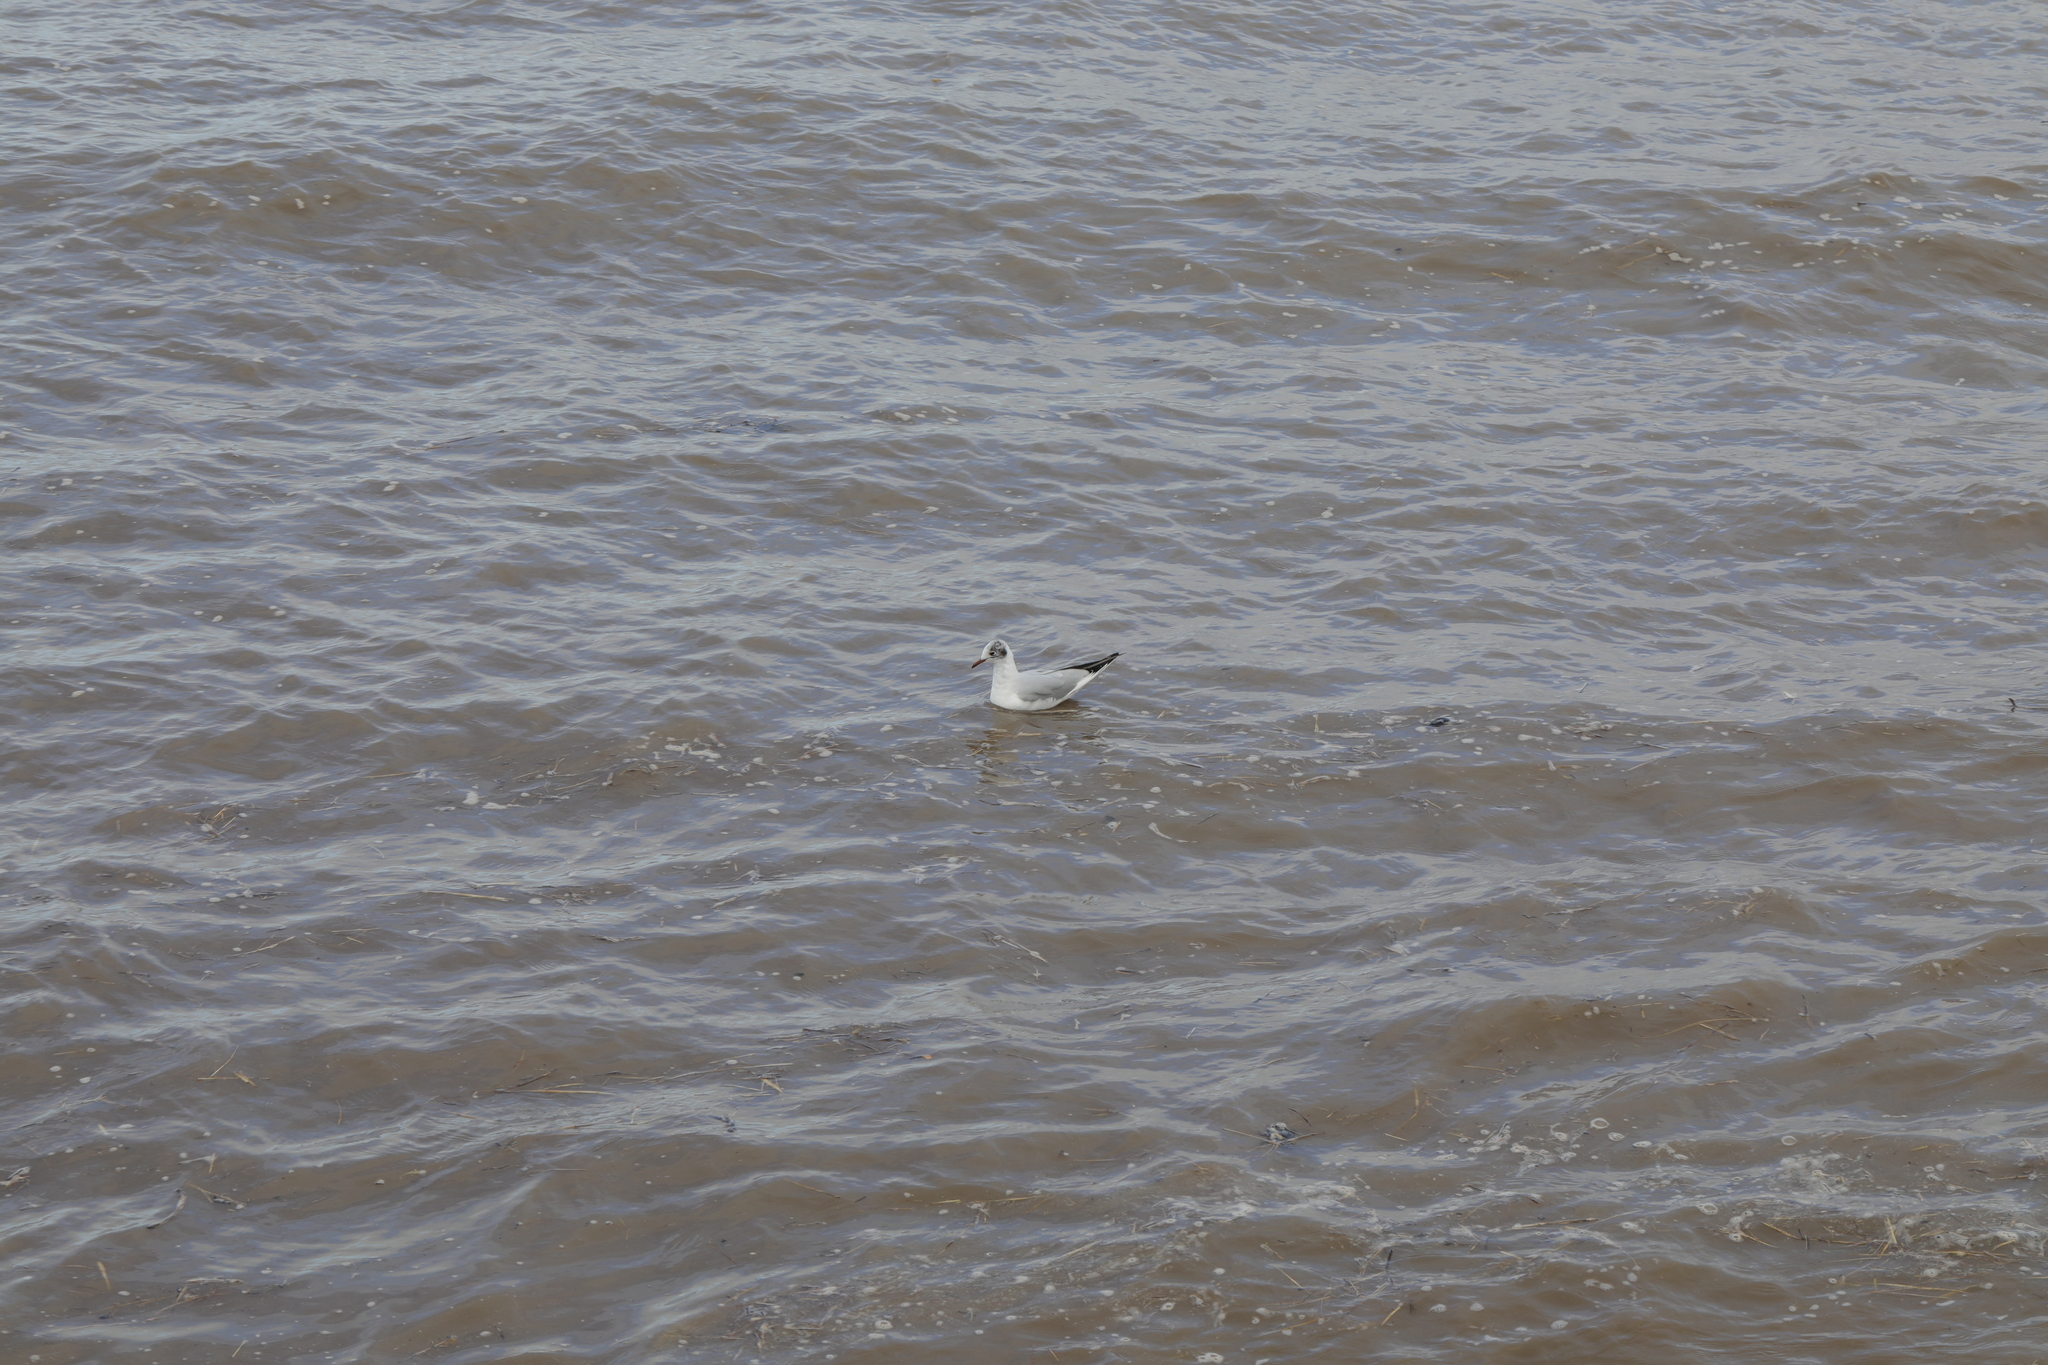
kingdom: Animalia
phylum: Chordata
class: Aves
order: Charadriiformes
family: Laridae
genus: Chroicocephalus
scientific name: Chroicocephalus ridibundus
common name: Black-headed gull
